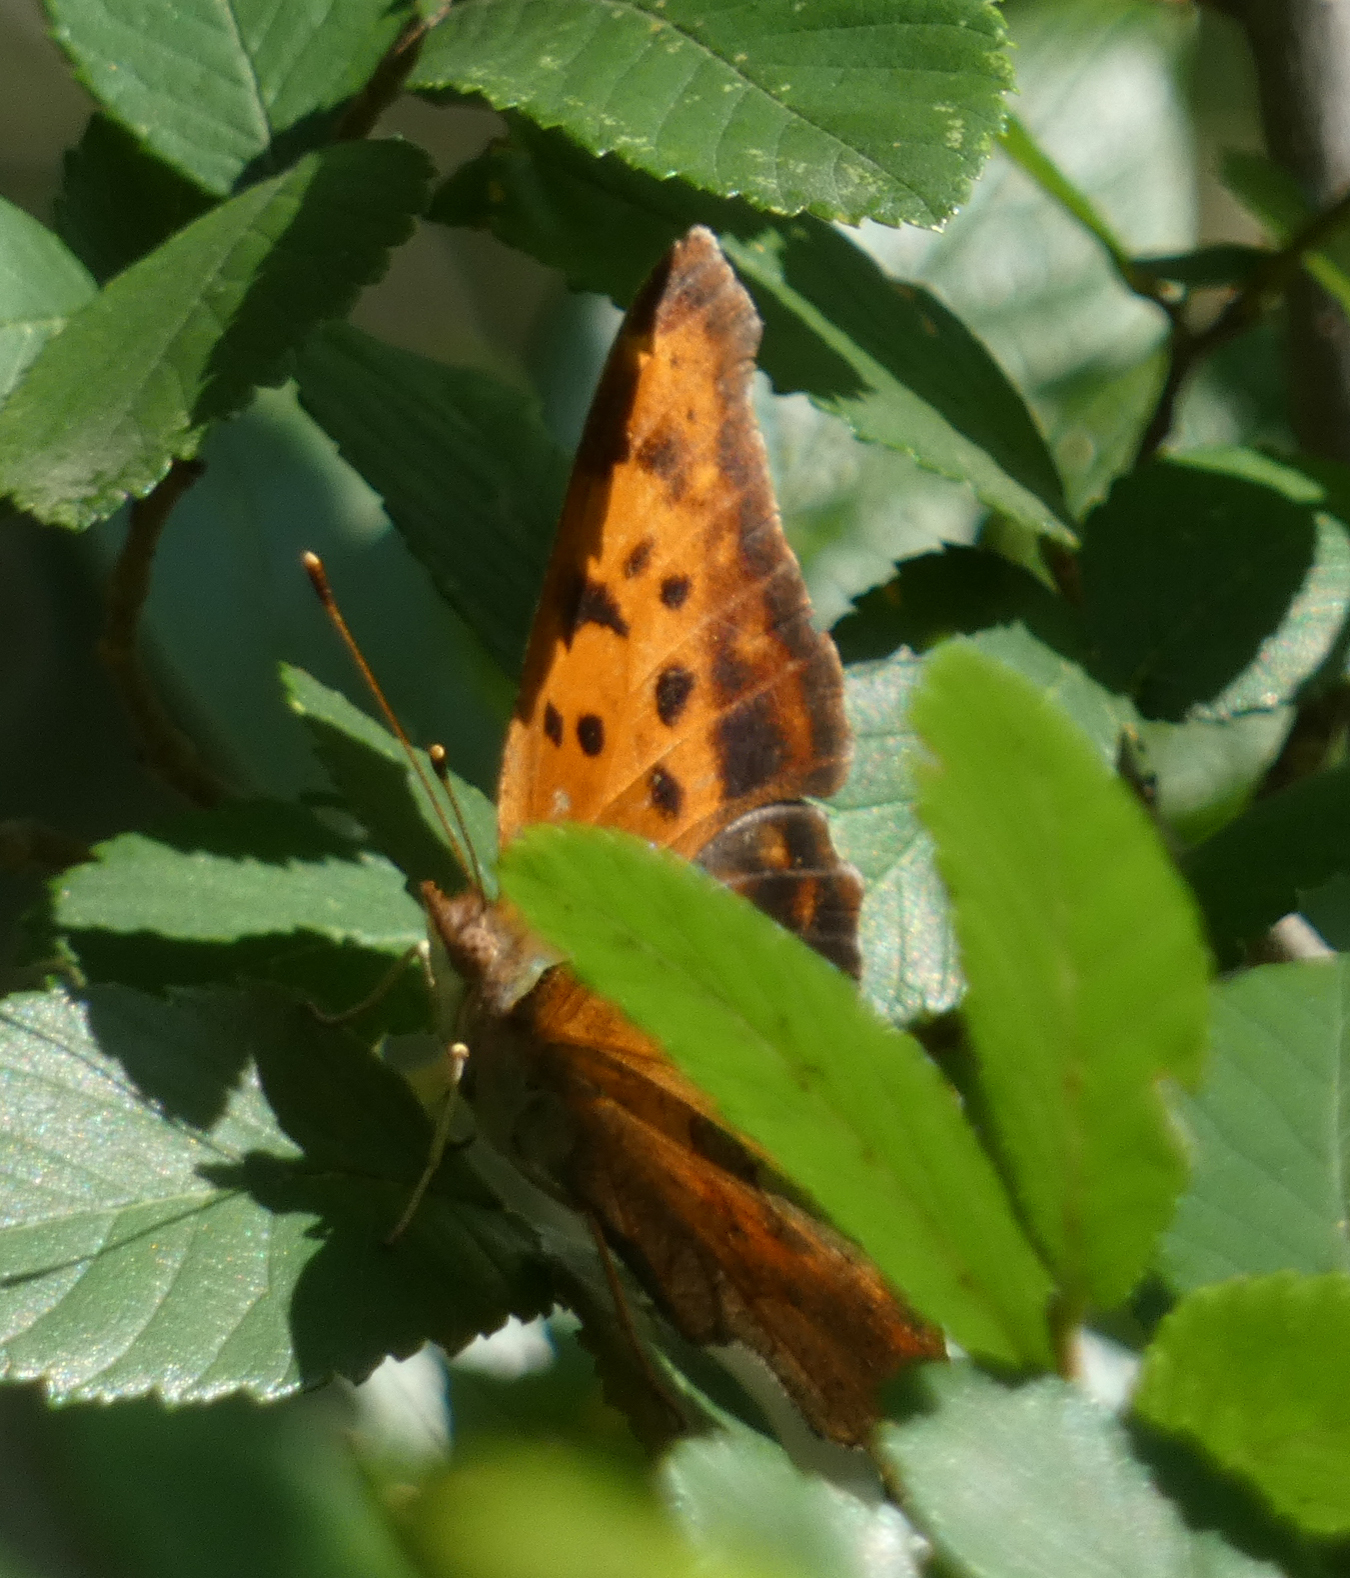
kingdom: Animalia
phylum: Arthropoda
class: Insecta
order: Lepidoptera
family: Nymphalidae
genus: Polygonia
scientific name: Polygonia interrogationis
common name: Question mark
